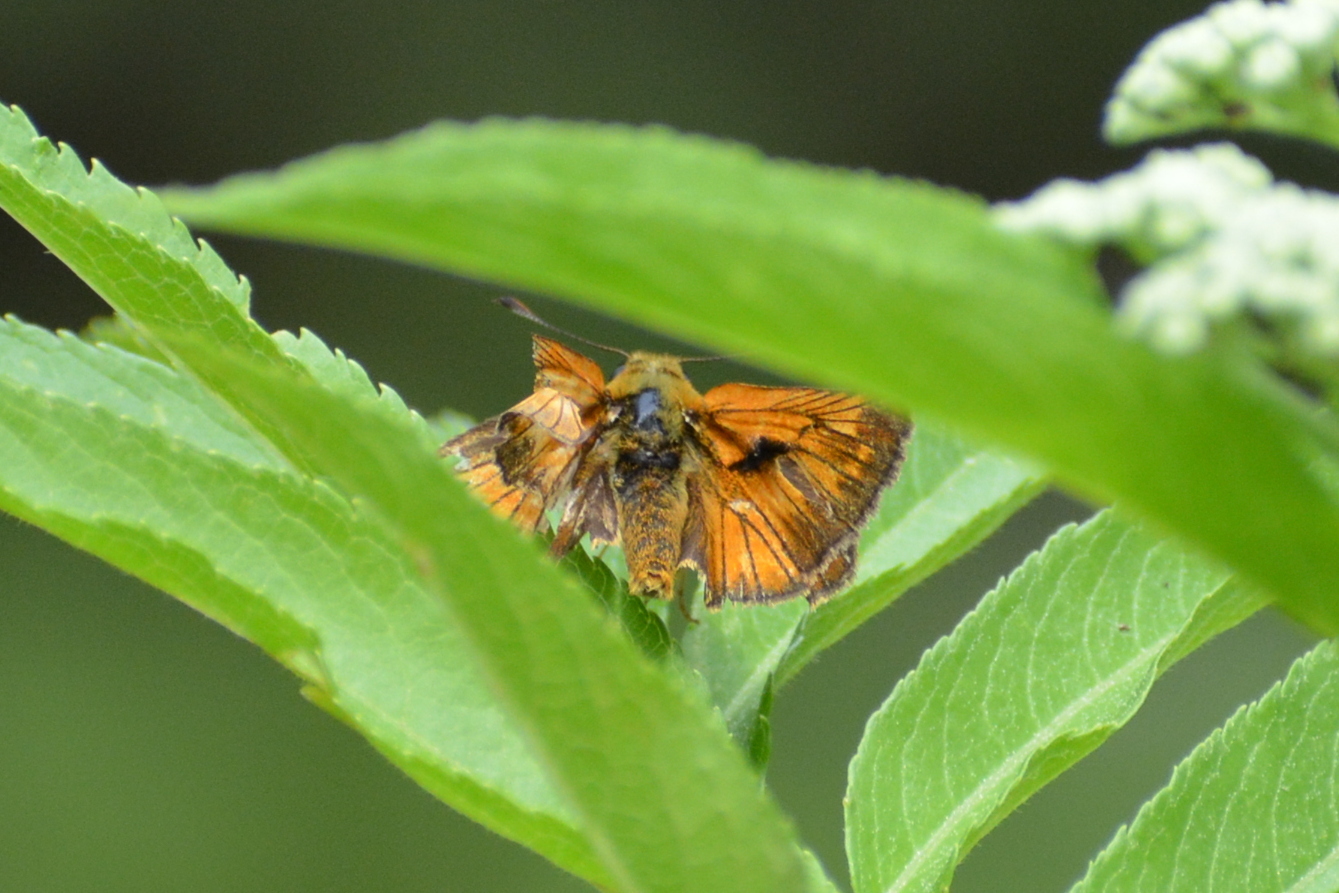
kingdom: Animalia
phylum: Arthropoda
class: Insecta
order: Lepidoptera
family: Hesperiidae
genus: Ochlodes
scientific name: Ochlodes venata
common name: Large skipper
